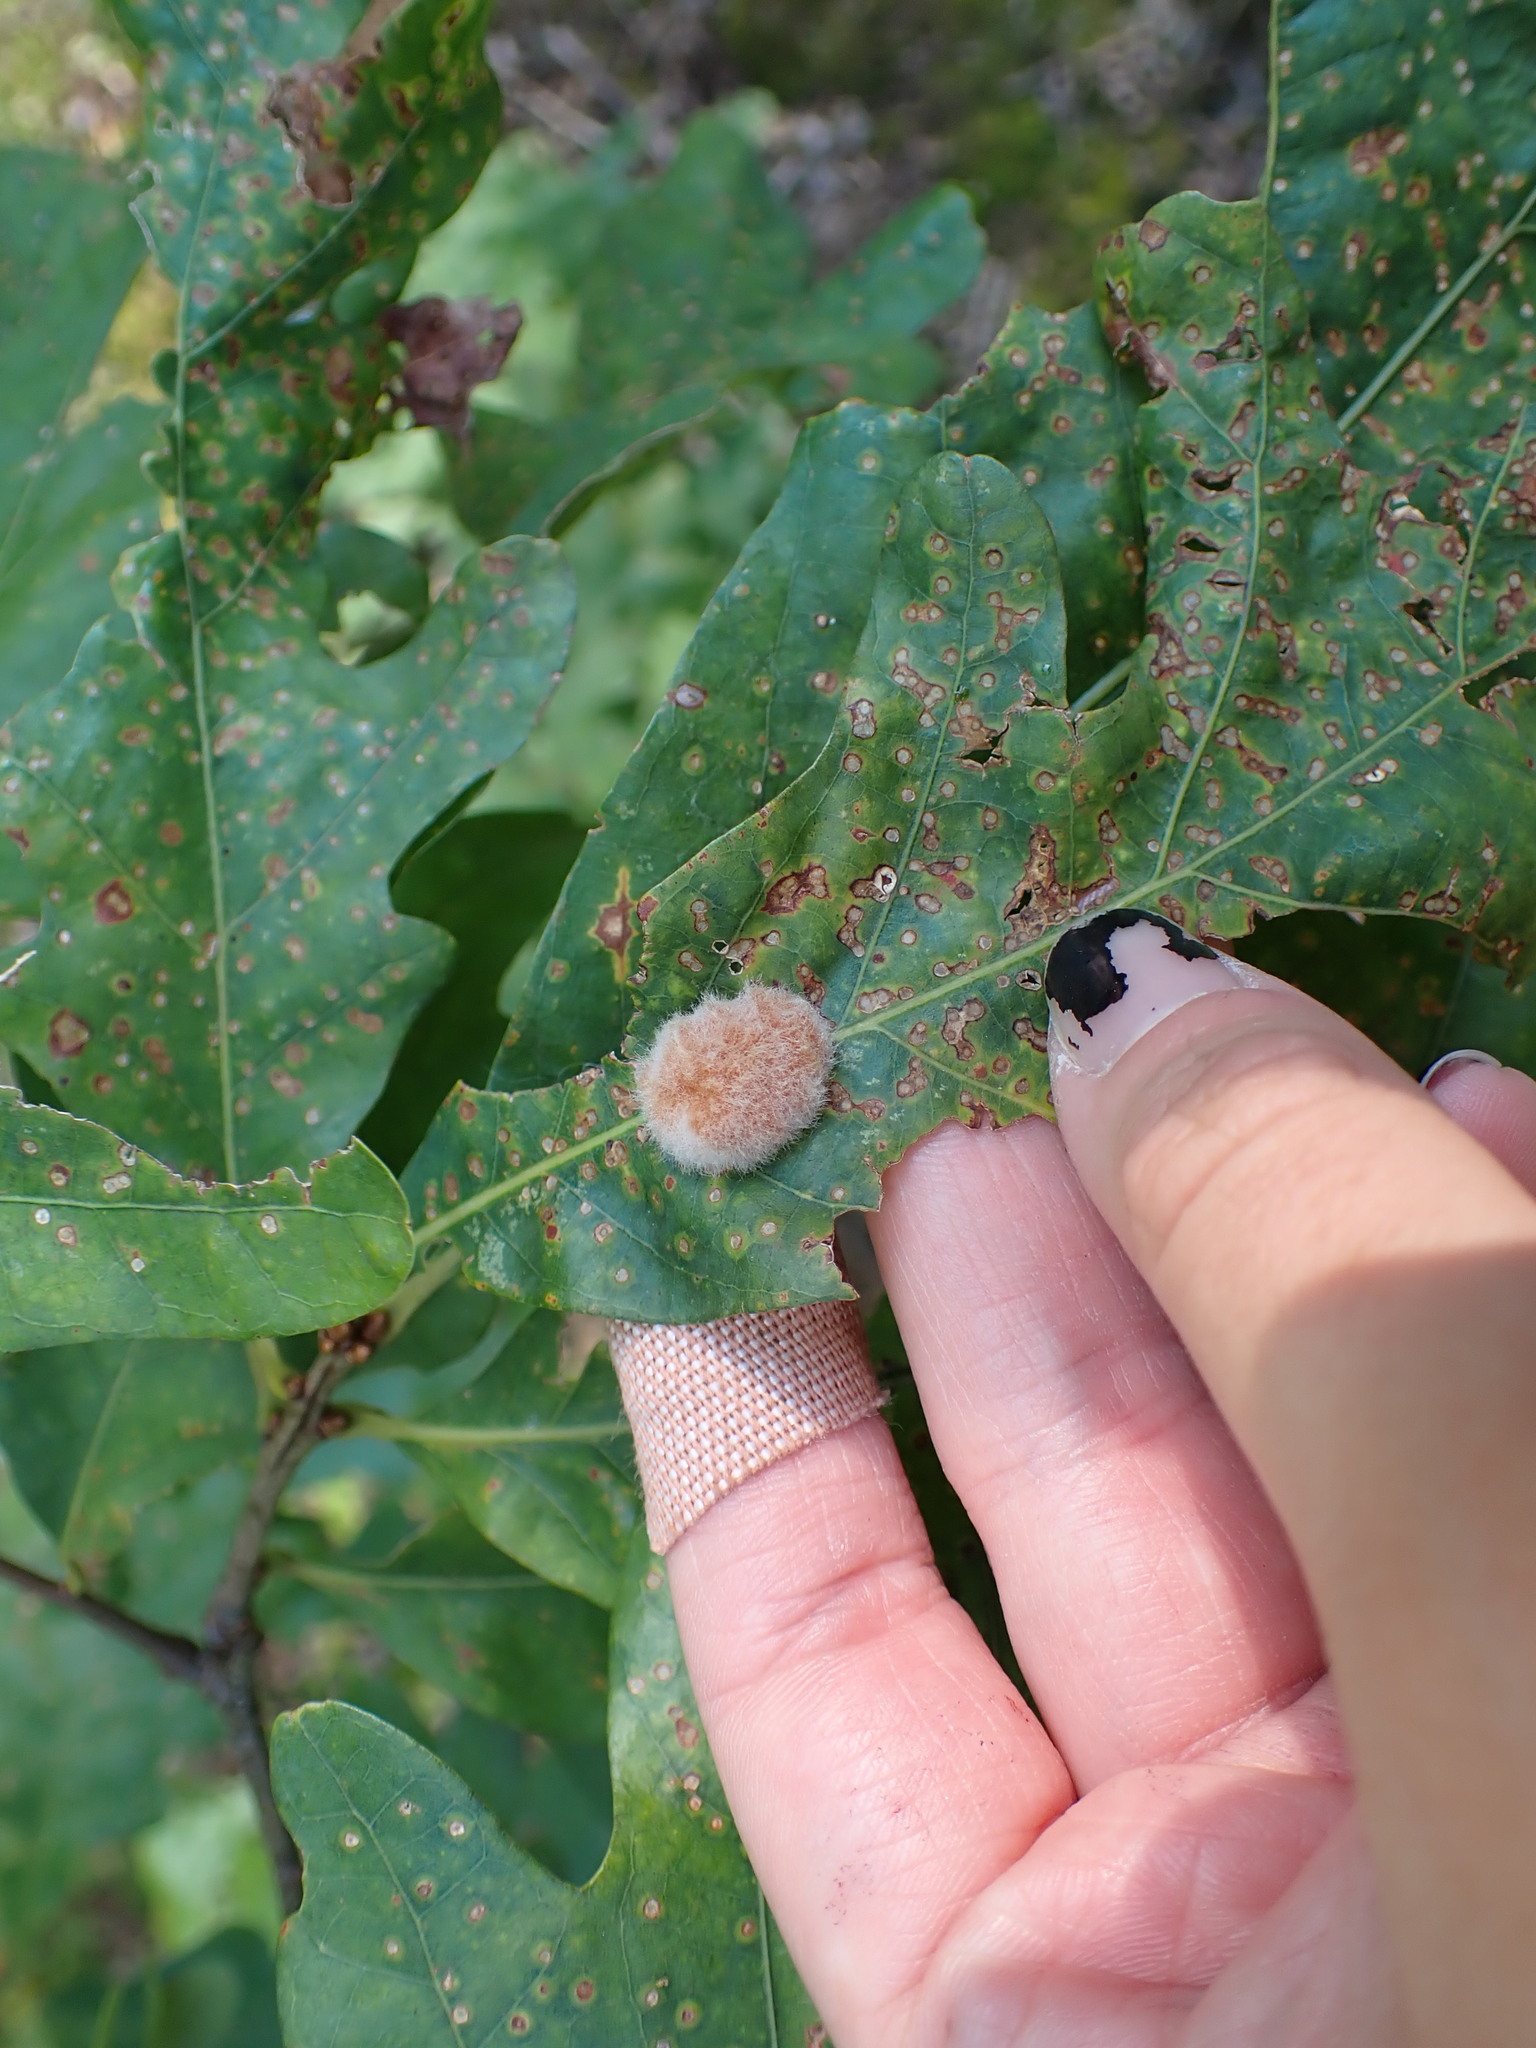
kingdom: Animalia
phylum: Arthropoda
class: Insecta
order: Hymenoptera
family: Cynipidae
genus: Andricus
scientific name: Andricus quercusflocci
